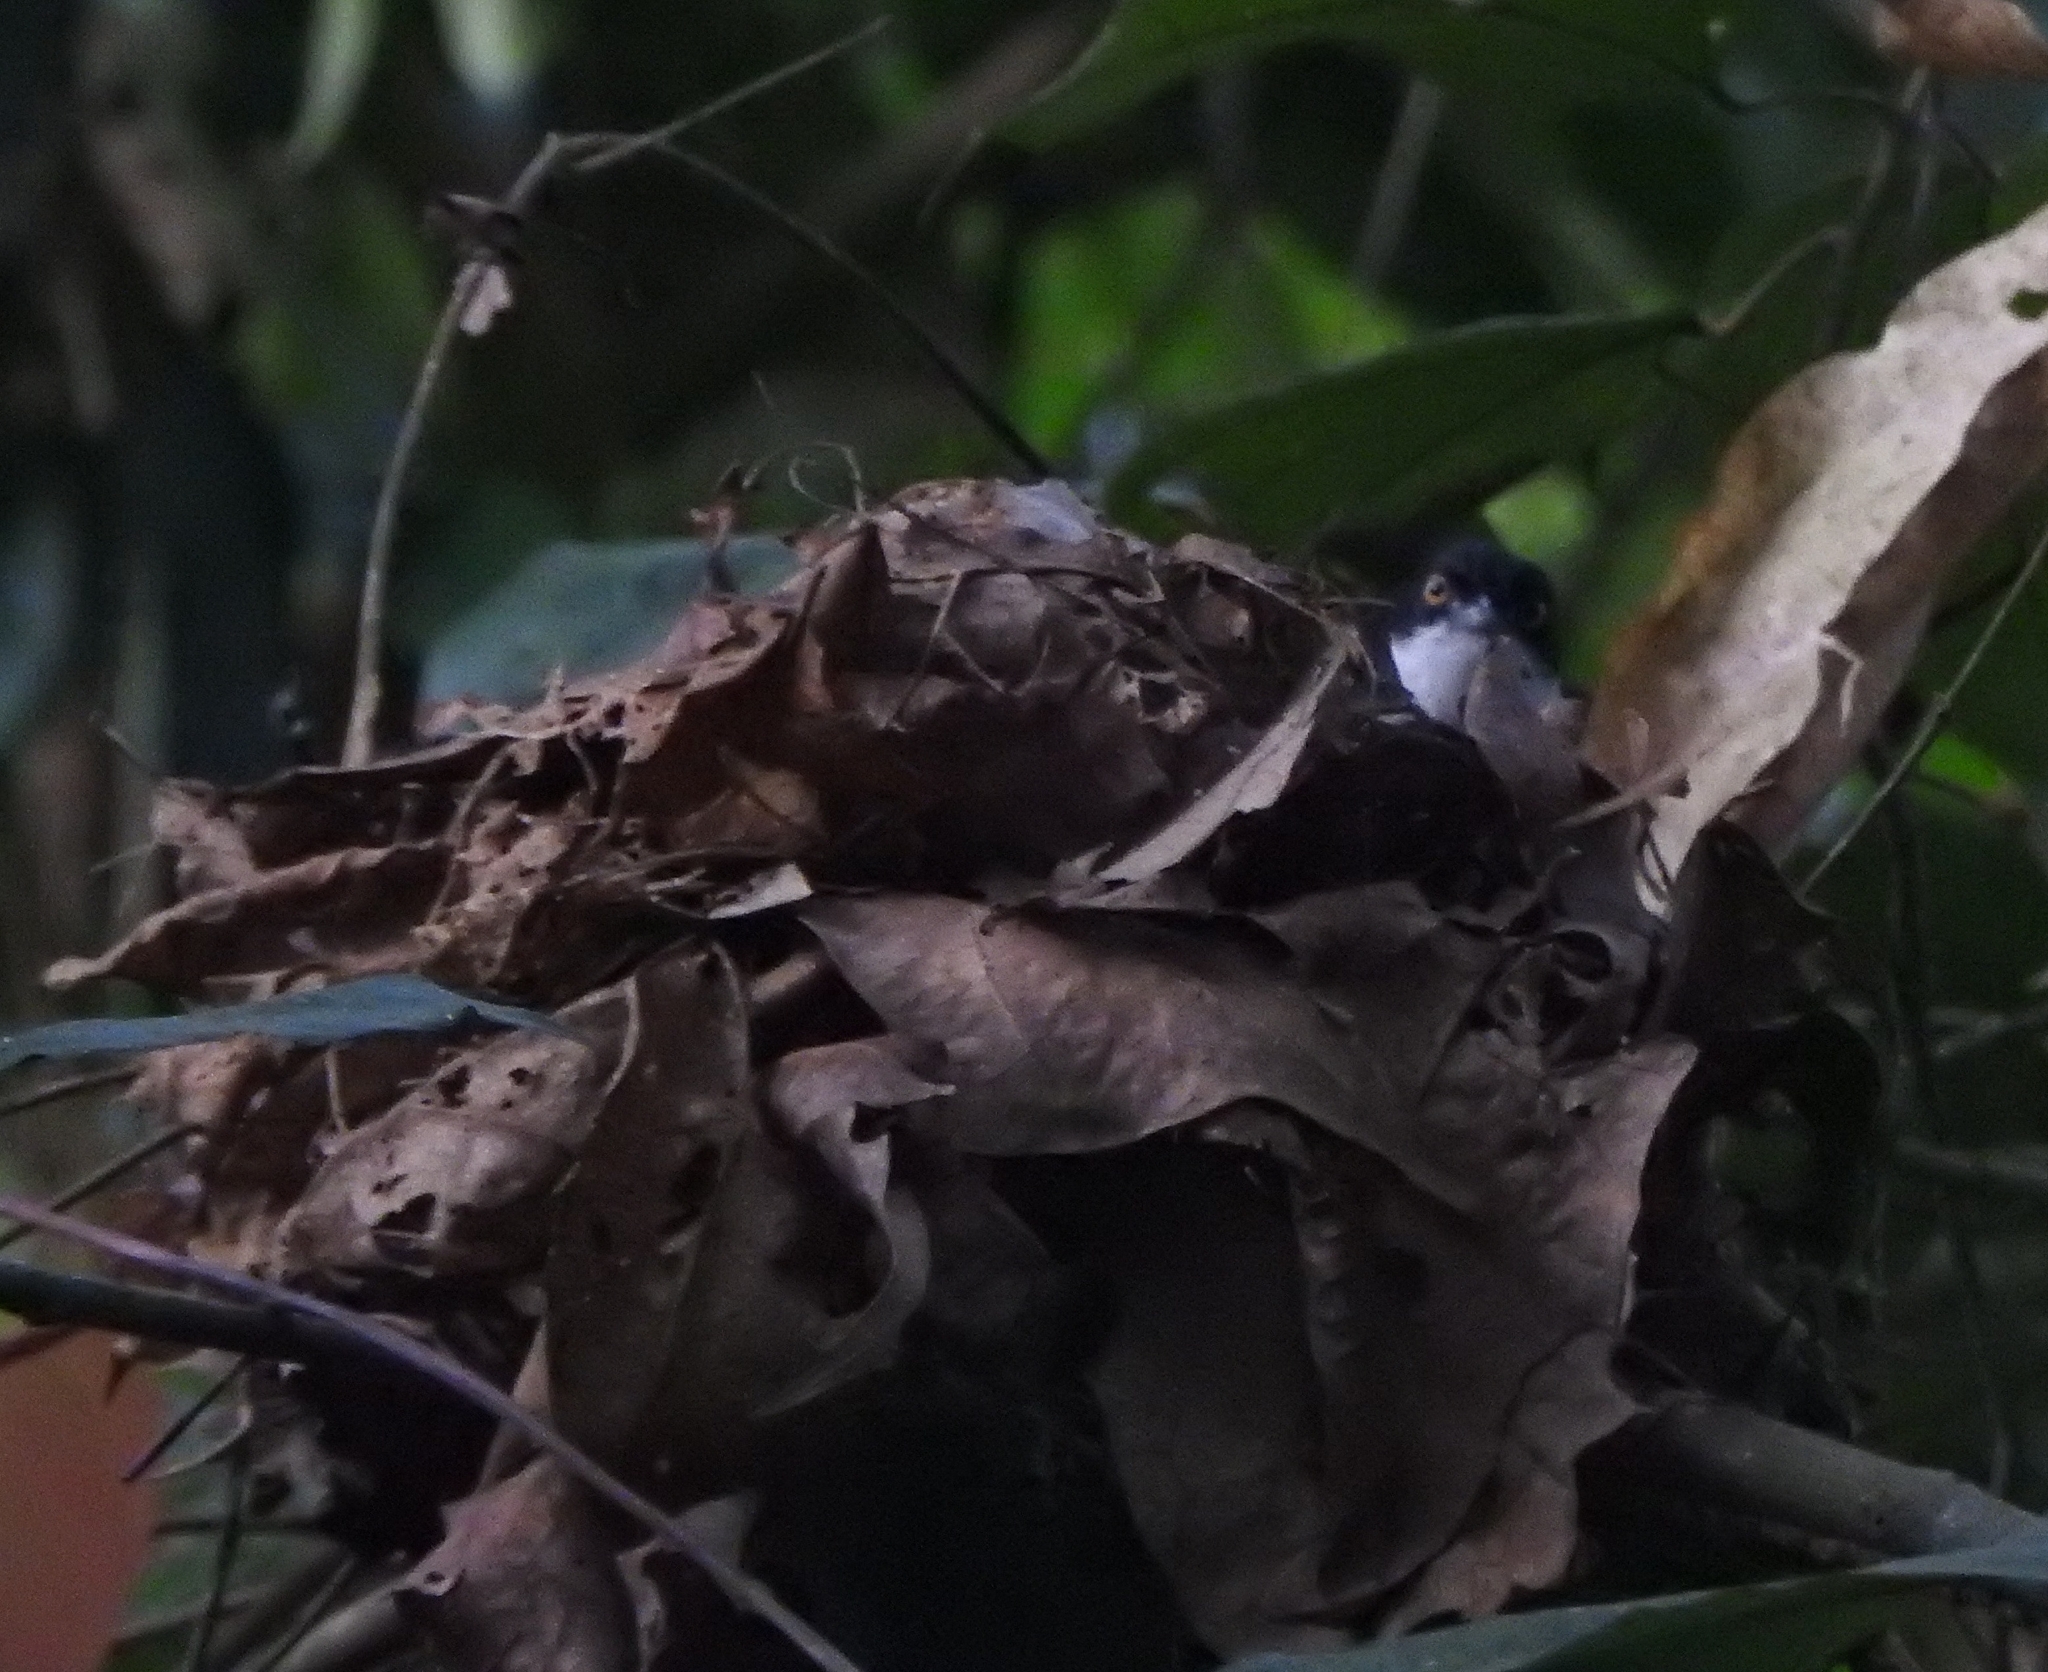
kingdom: Animalia
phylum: Chordata
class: Aves
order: Passeriformes
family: Timaliidae
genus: Rhopocichla
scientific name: Rhopocichla atriceps
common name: Dark-fronted babbler
